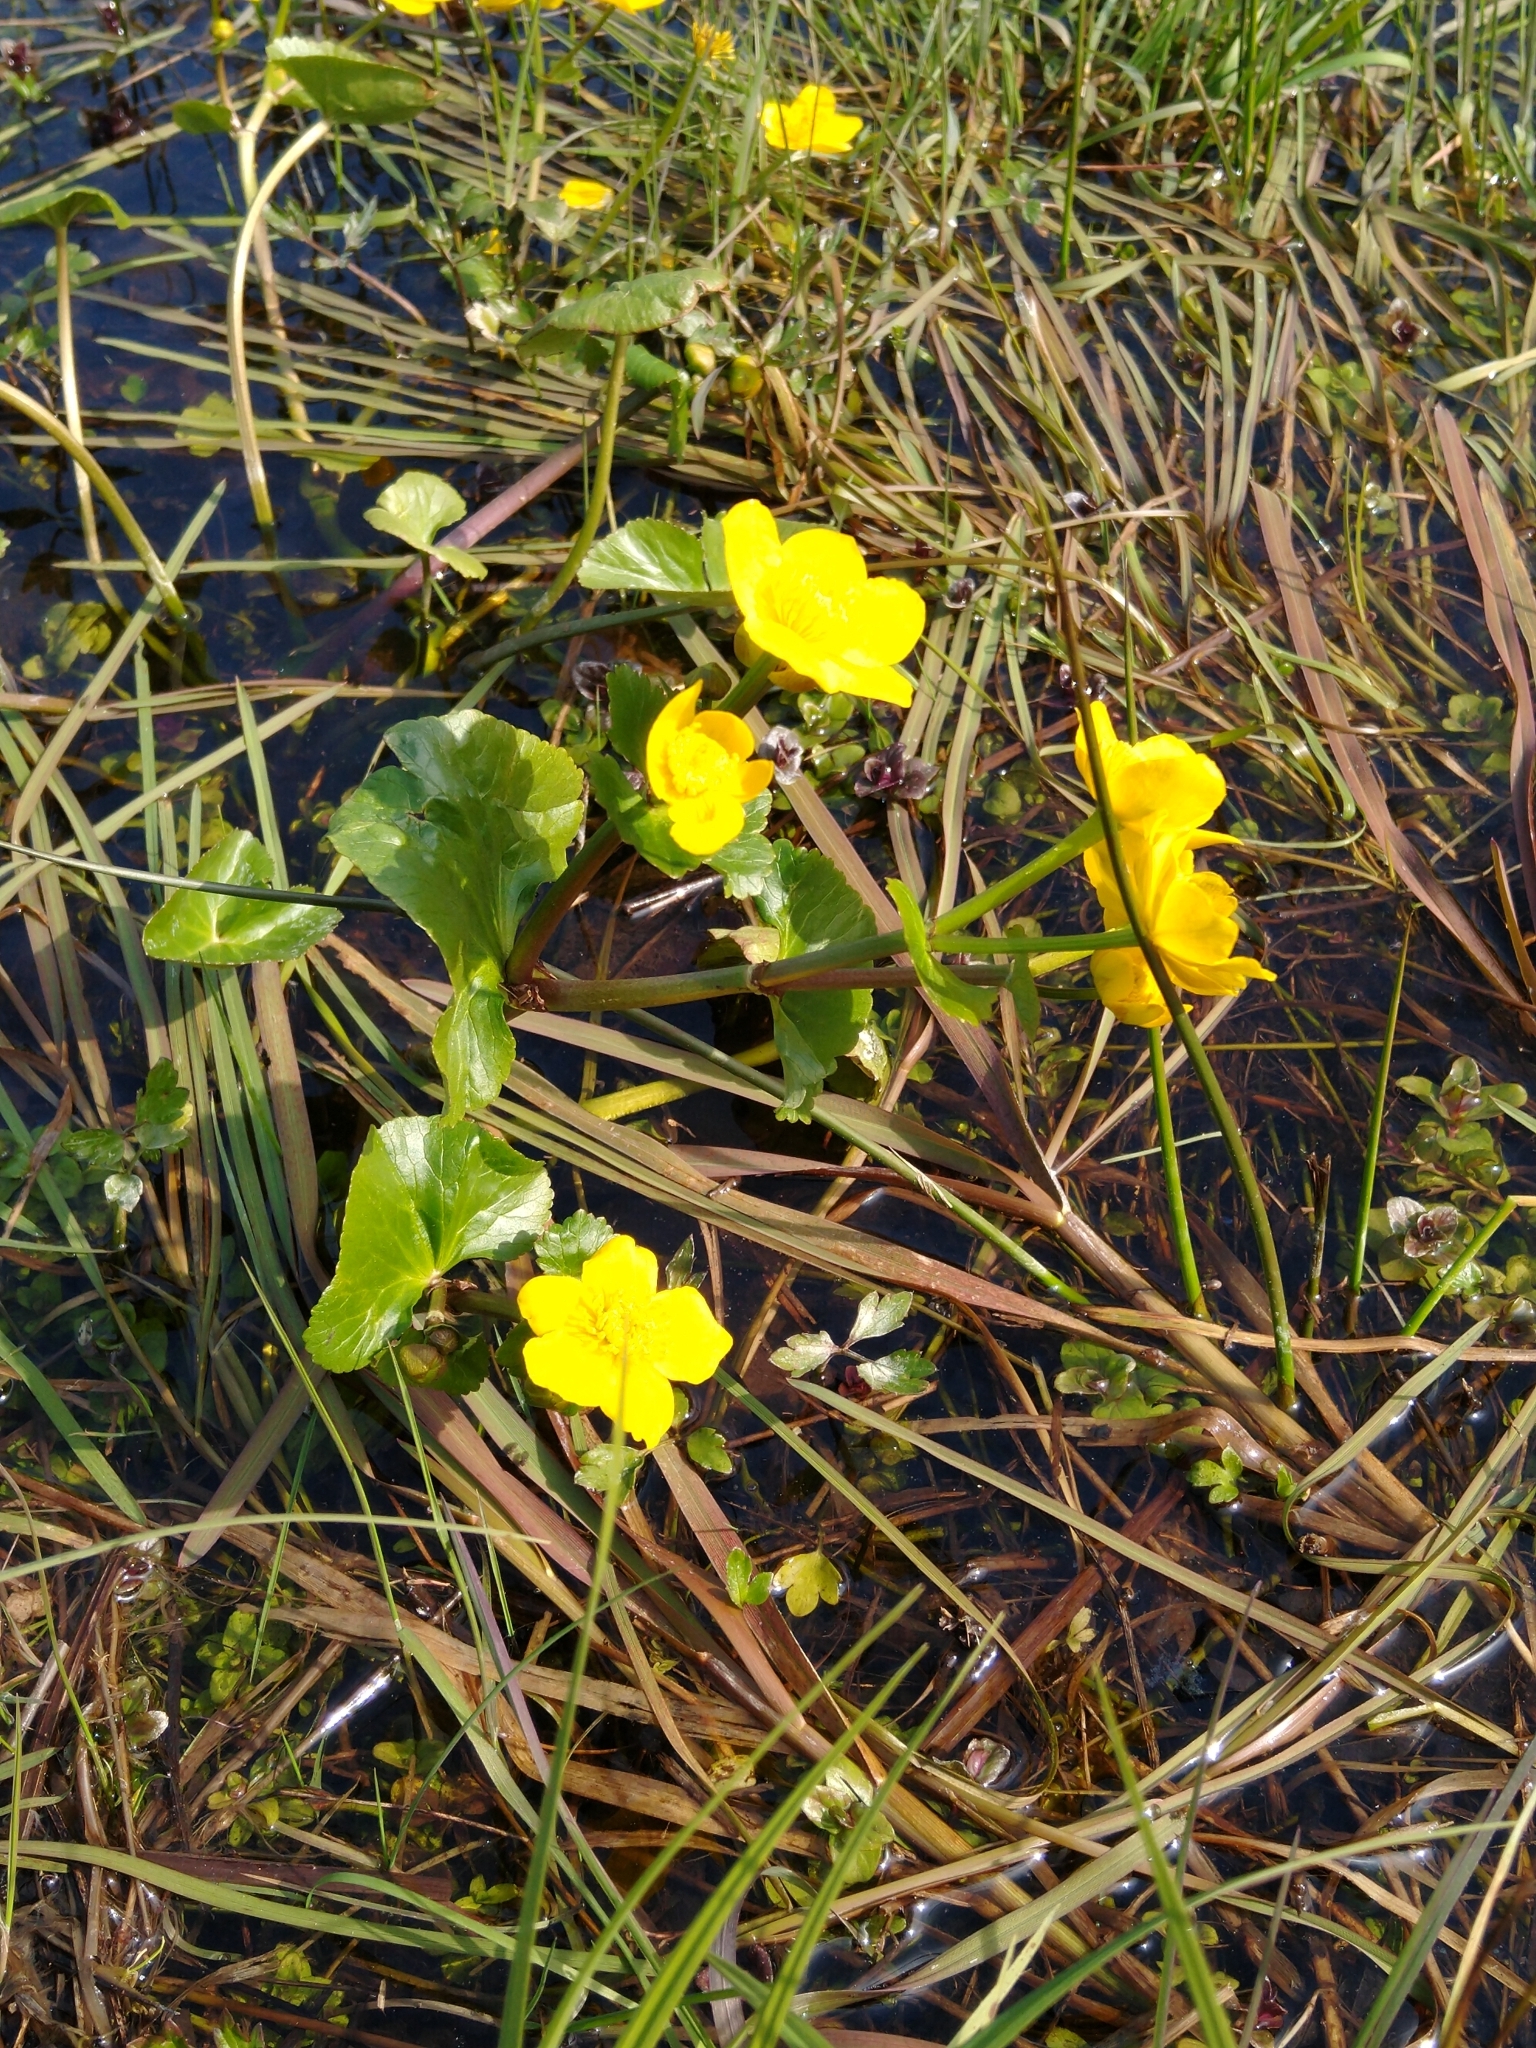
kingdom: Plantae
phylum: Tracheophyta
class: Magnoliopsida
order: Ranunculales
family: Ranunculaceae
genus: Caltha
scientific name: Caltha palustris
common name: Marsh marigold
